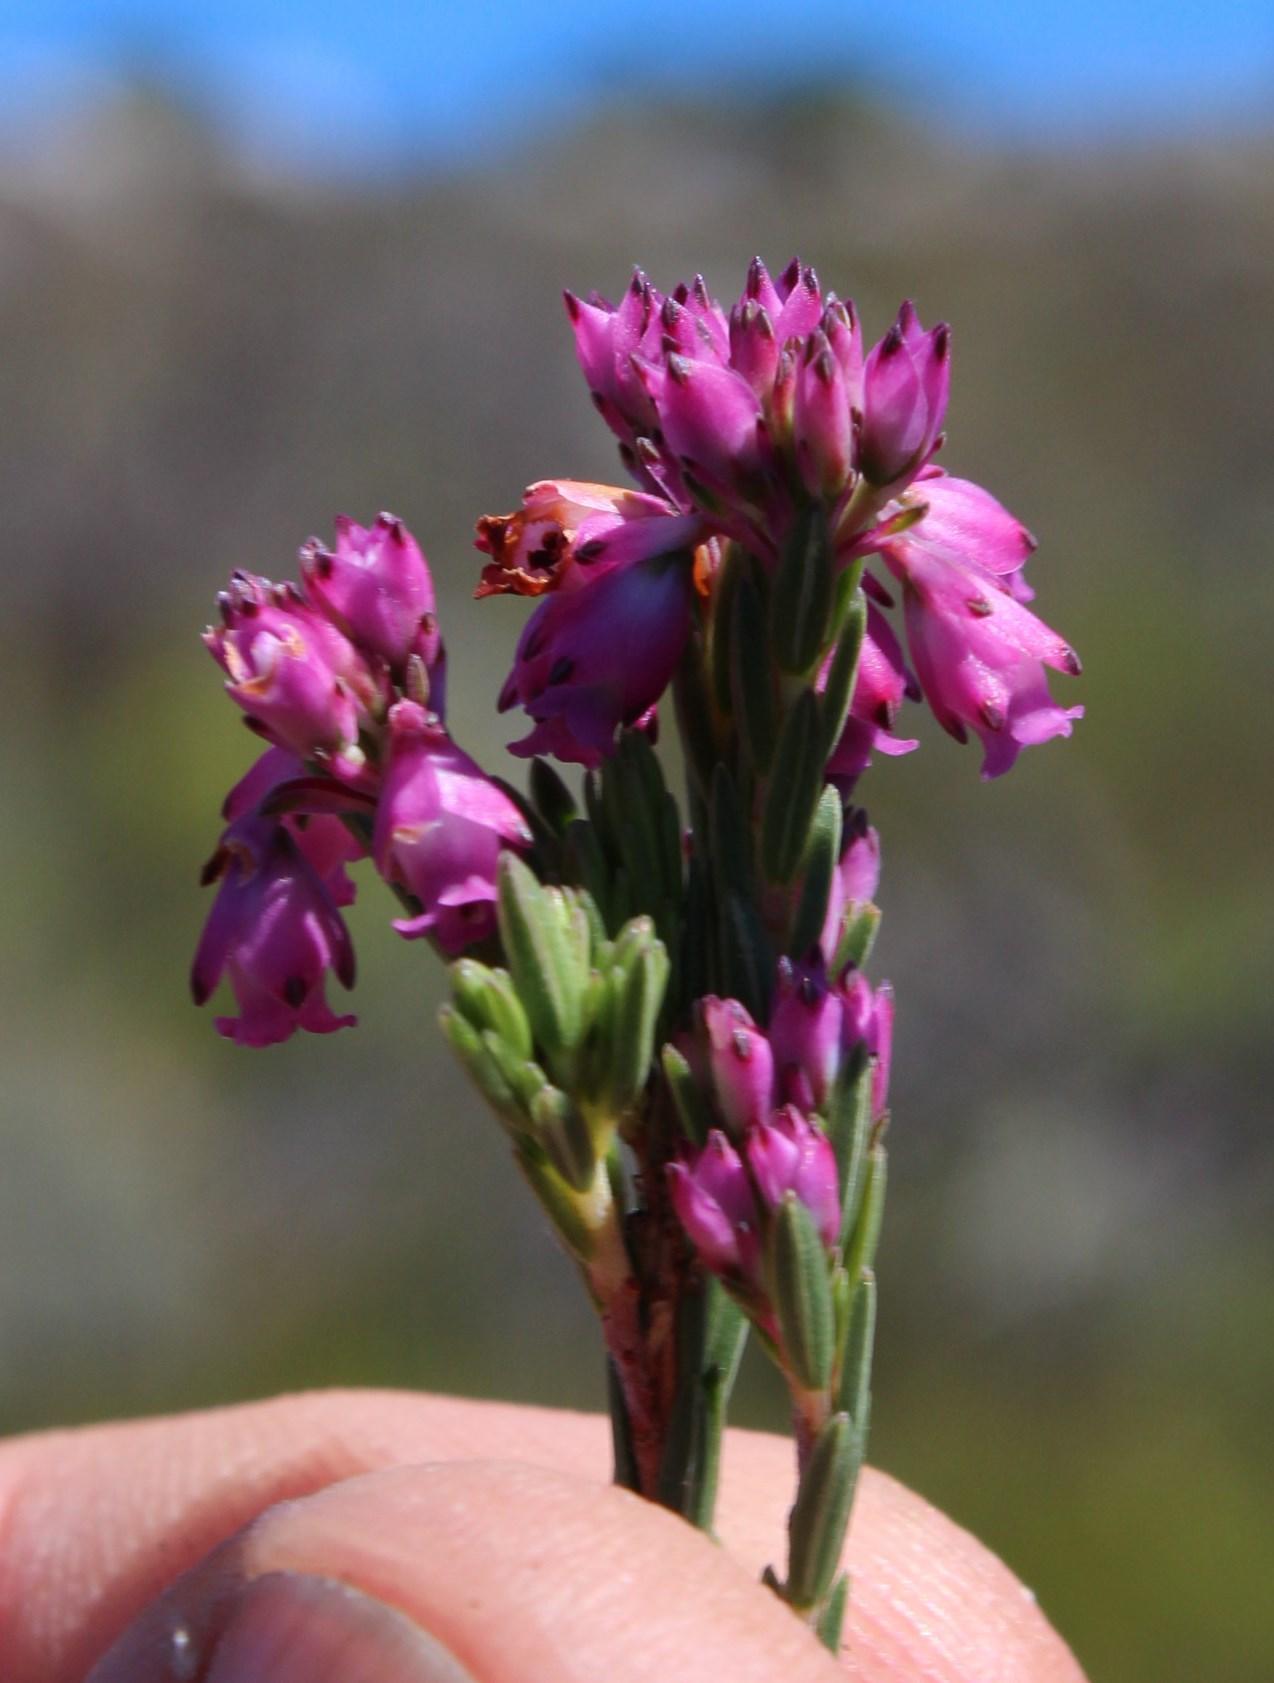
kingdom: Plantae
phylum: Tracheophyta
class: Magnoliopsida
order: Ericales
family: Ericaceae
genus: Erica
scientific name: Erica corifolia
